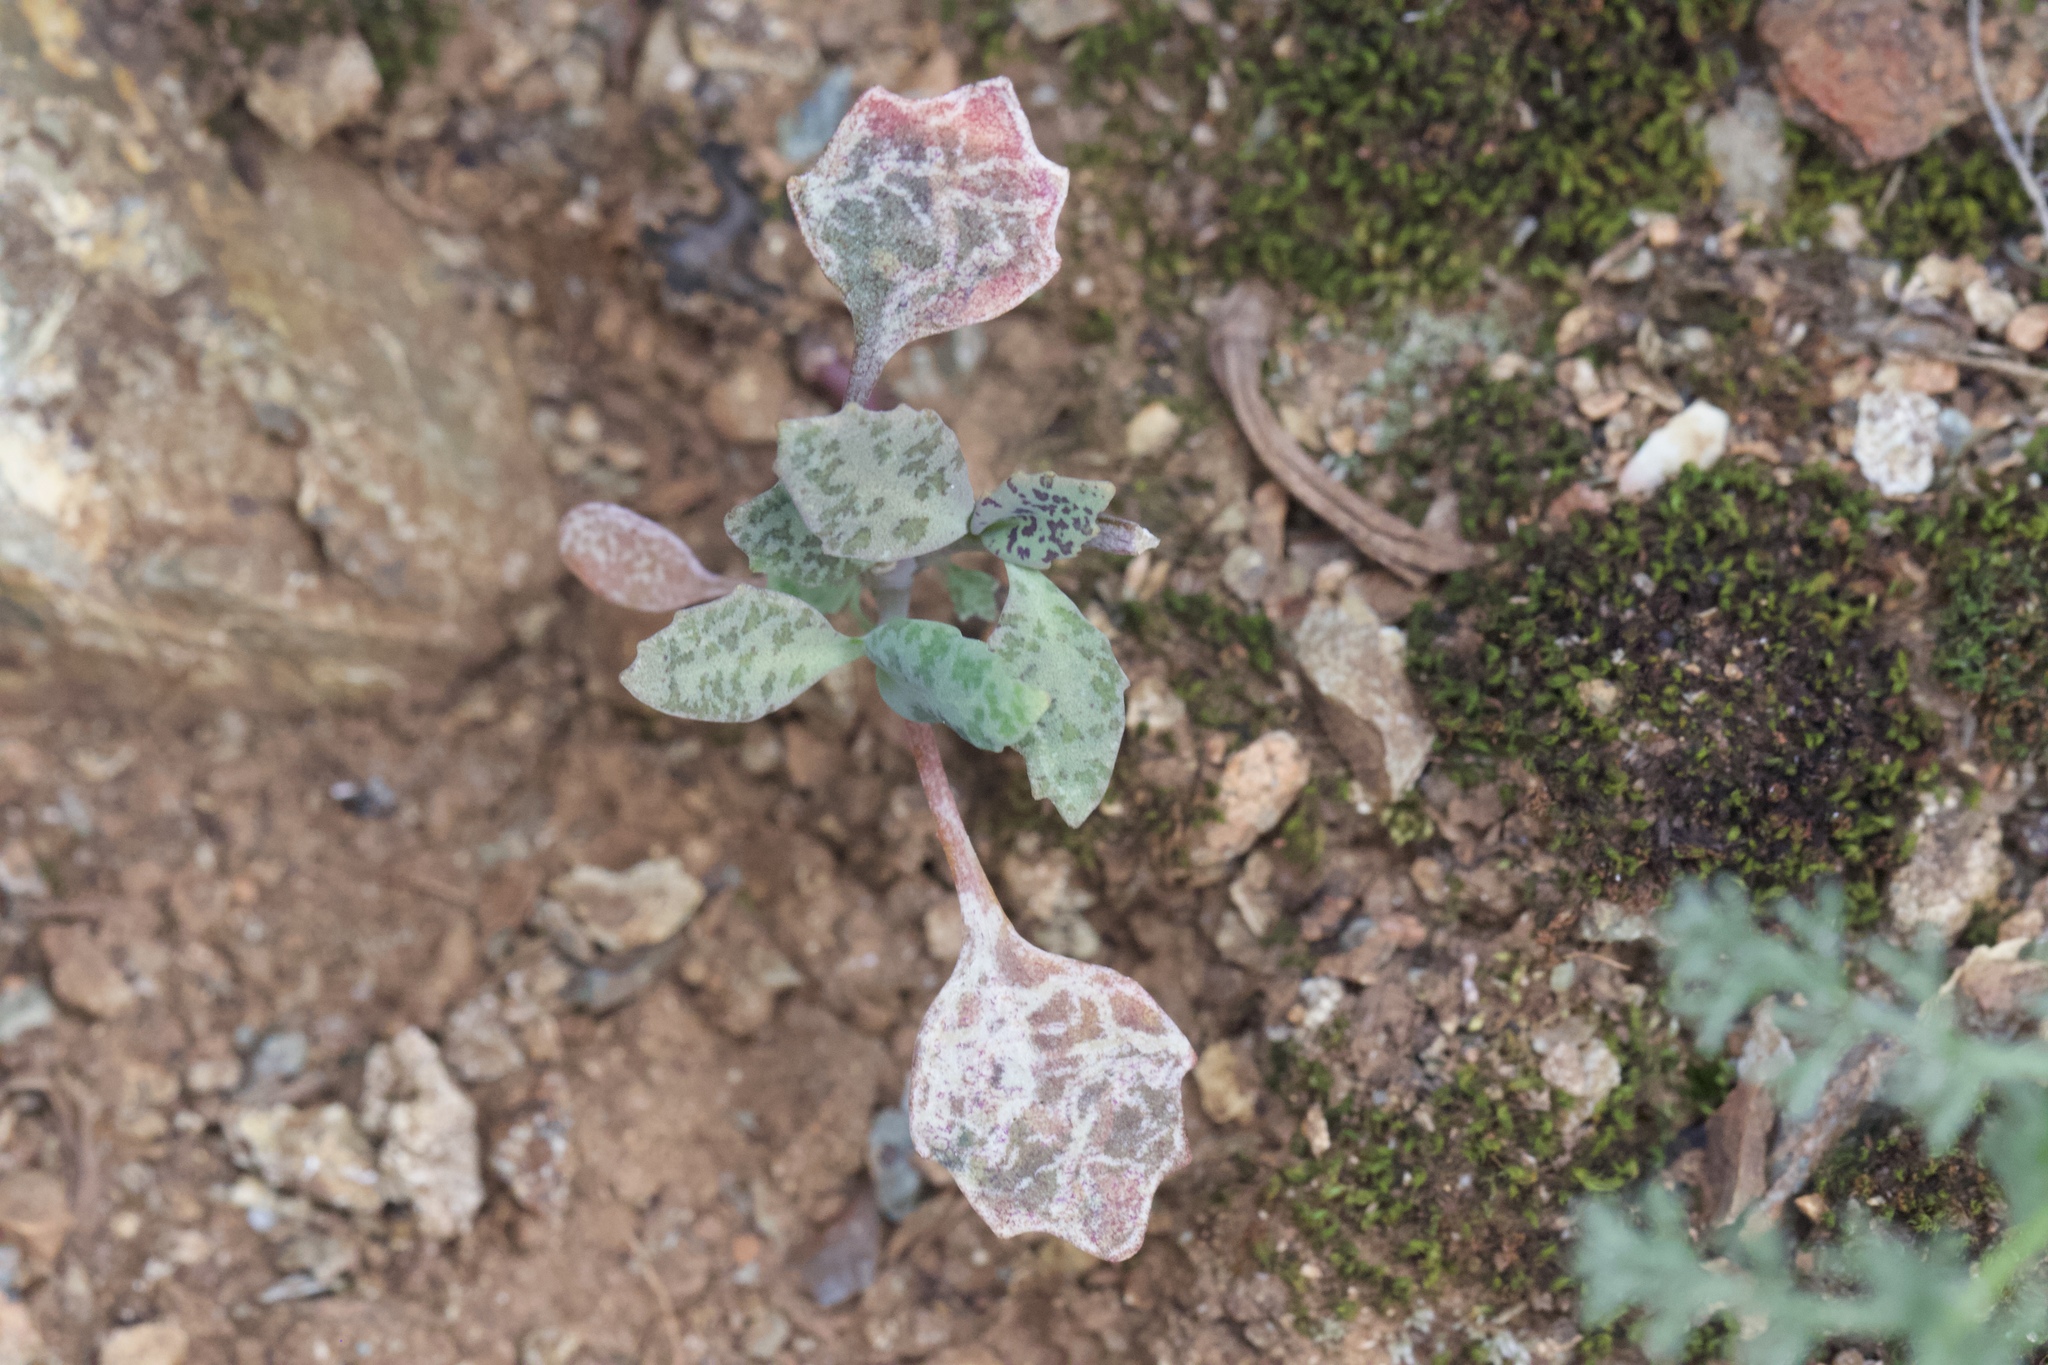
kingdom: Plantae
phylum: Tracheophyta
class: Magnoliopsida
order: Brassicales
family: Brassicaceae
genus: Streptanthus
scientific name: Streptanthus breweri
